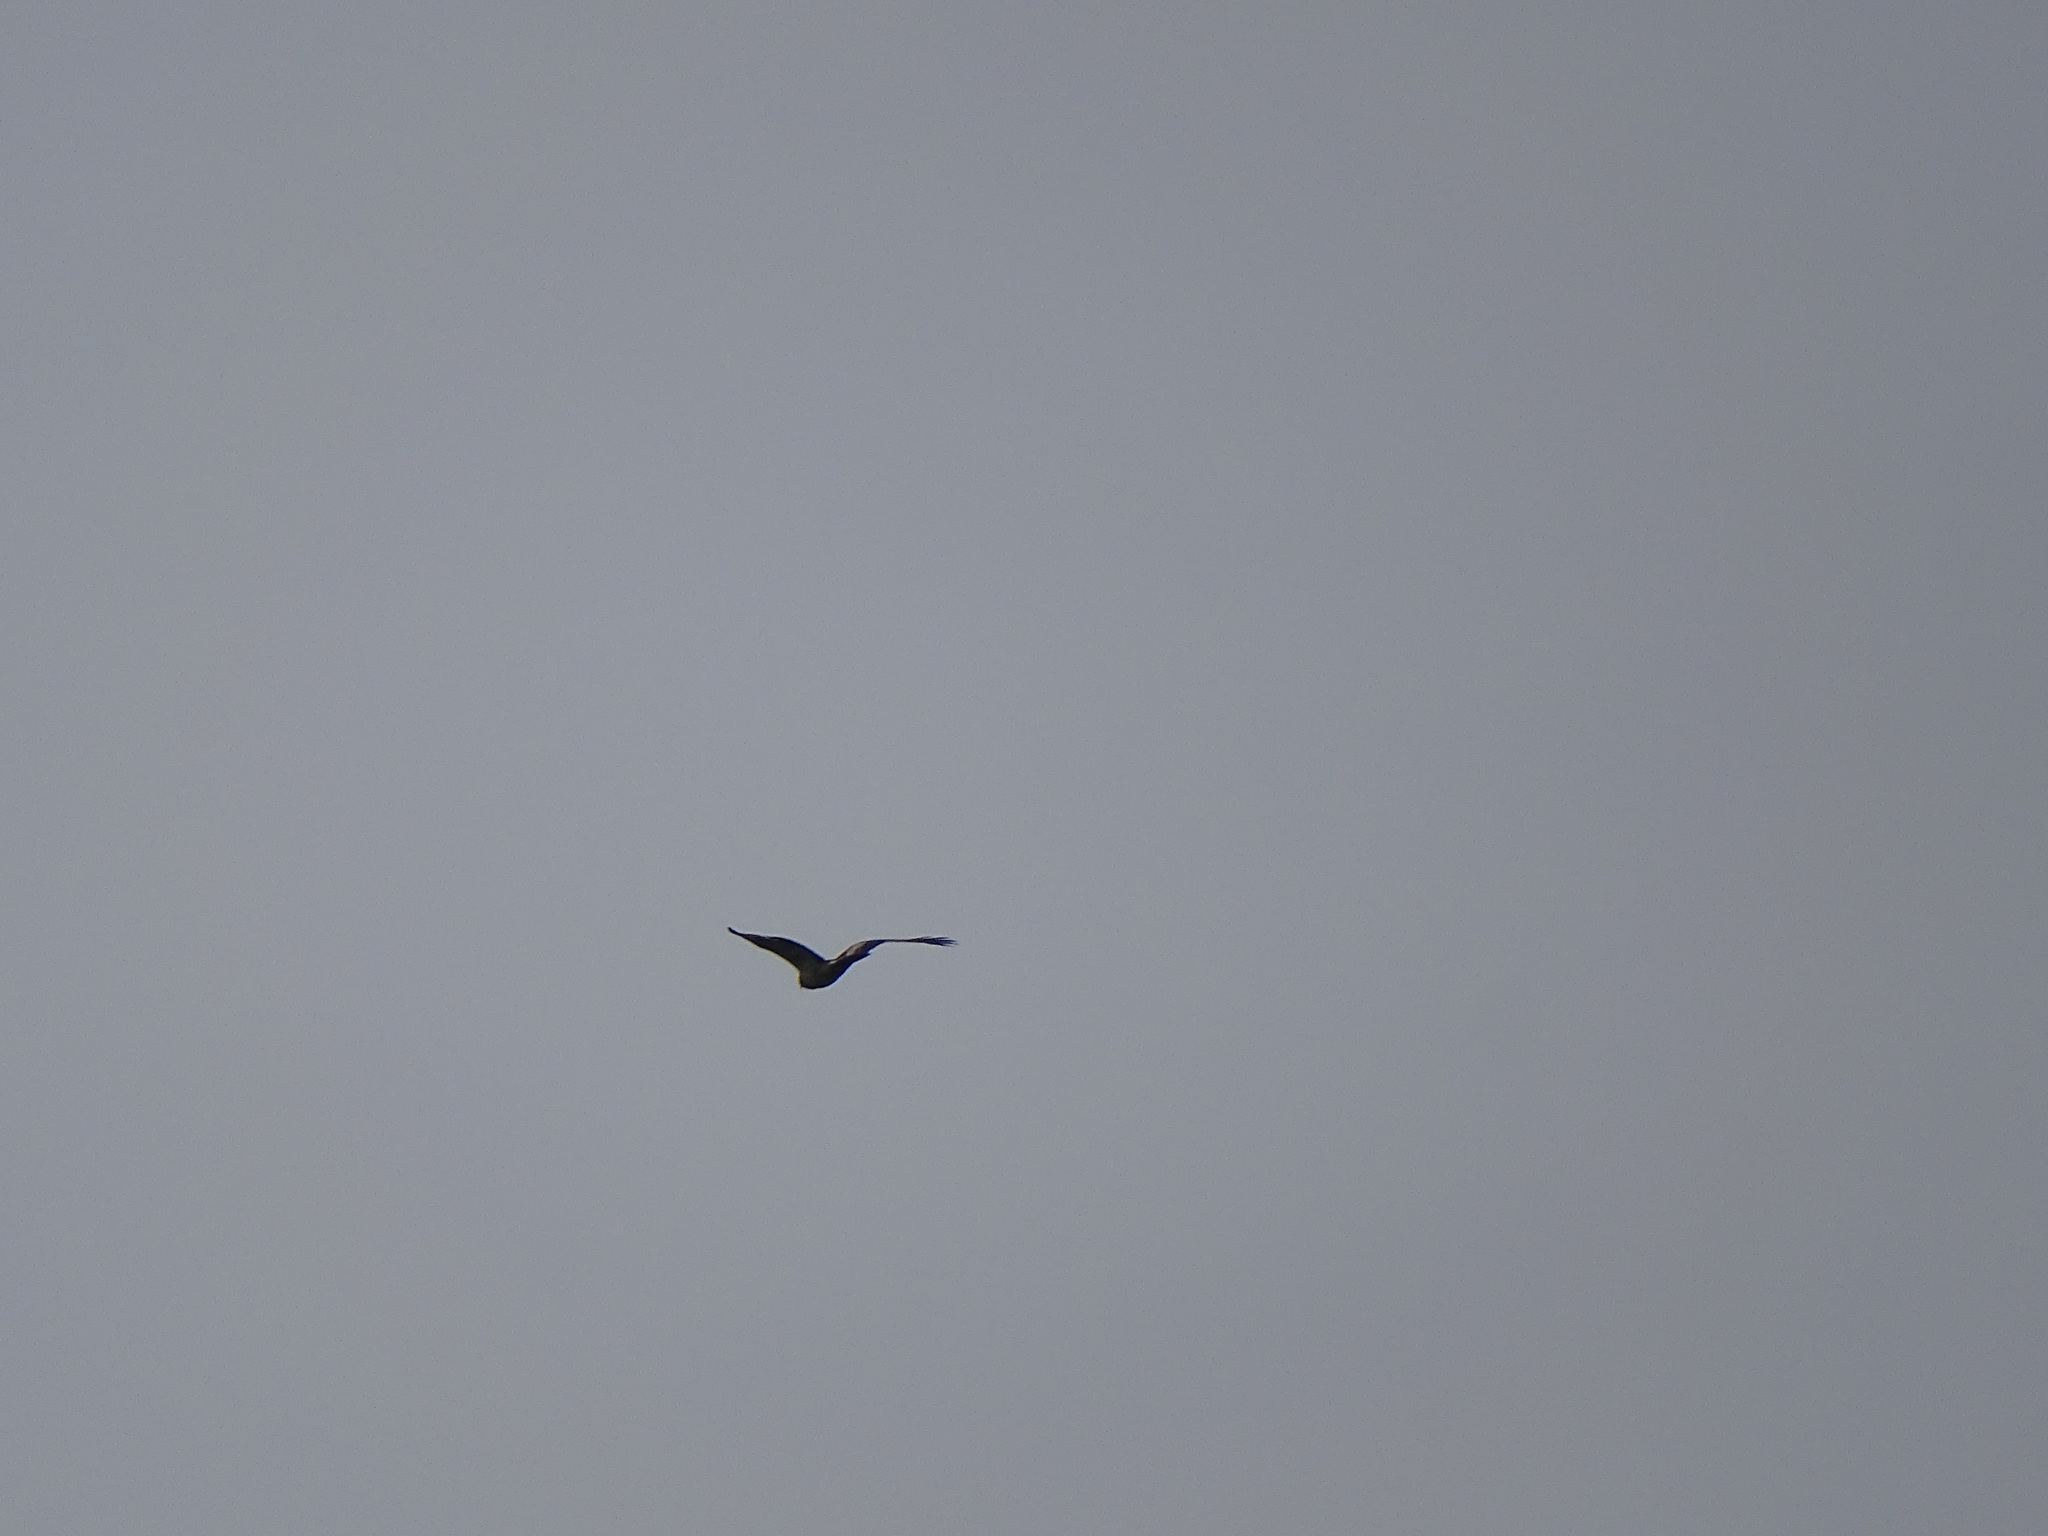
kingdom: Animalia
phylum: Chordata
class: Aves
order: Accipitriformes
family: Accipitridae
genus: Hieraaetus
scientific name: Hieraaetus pennatus
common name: Booted eagle
